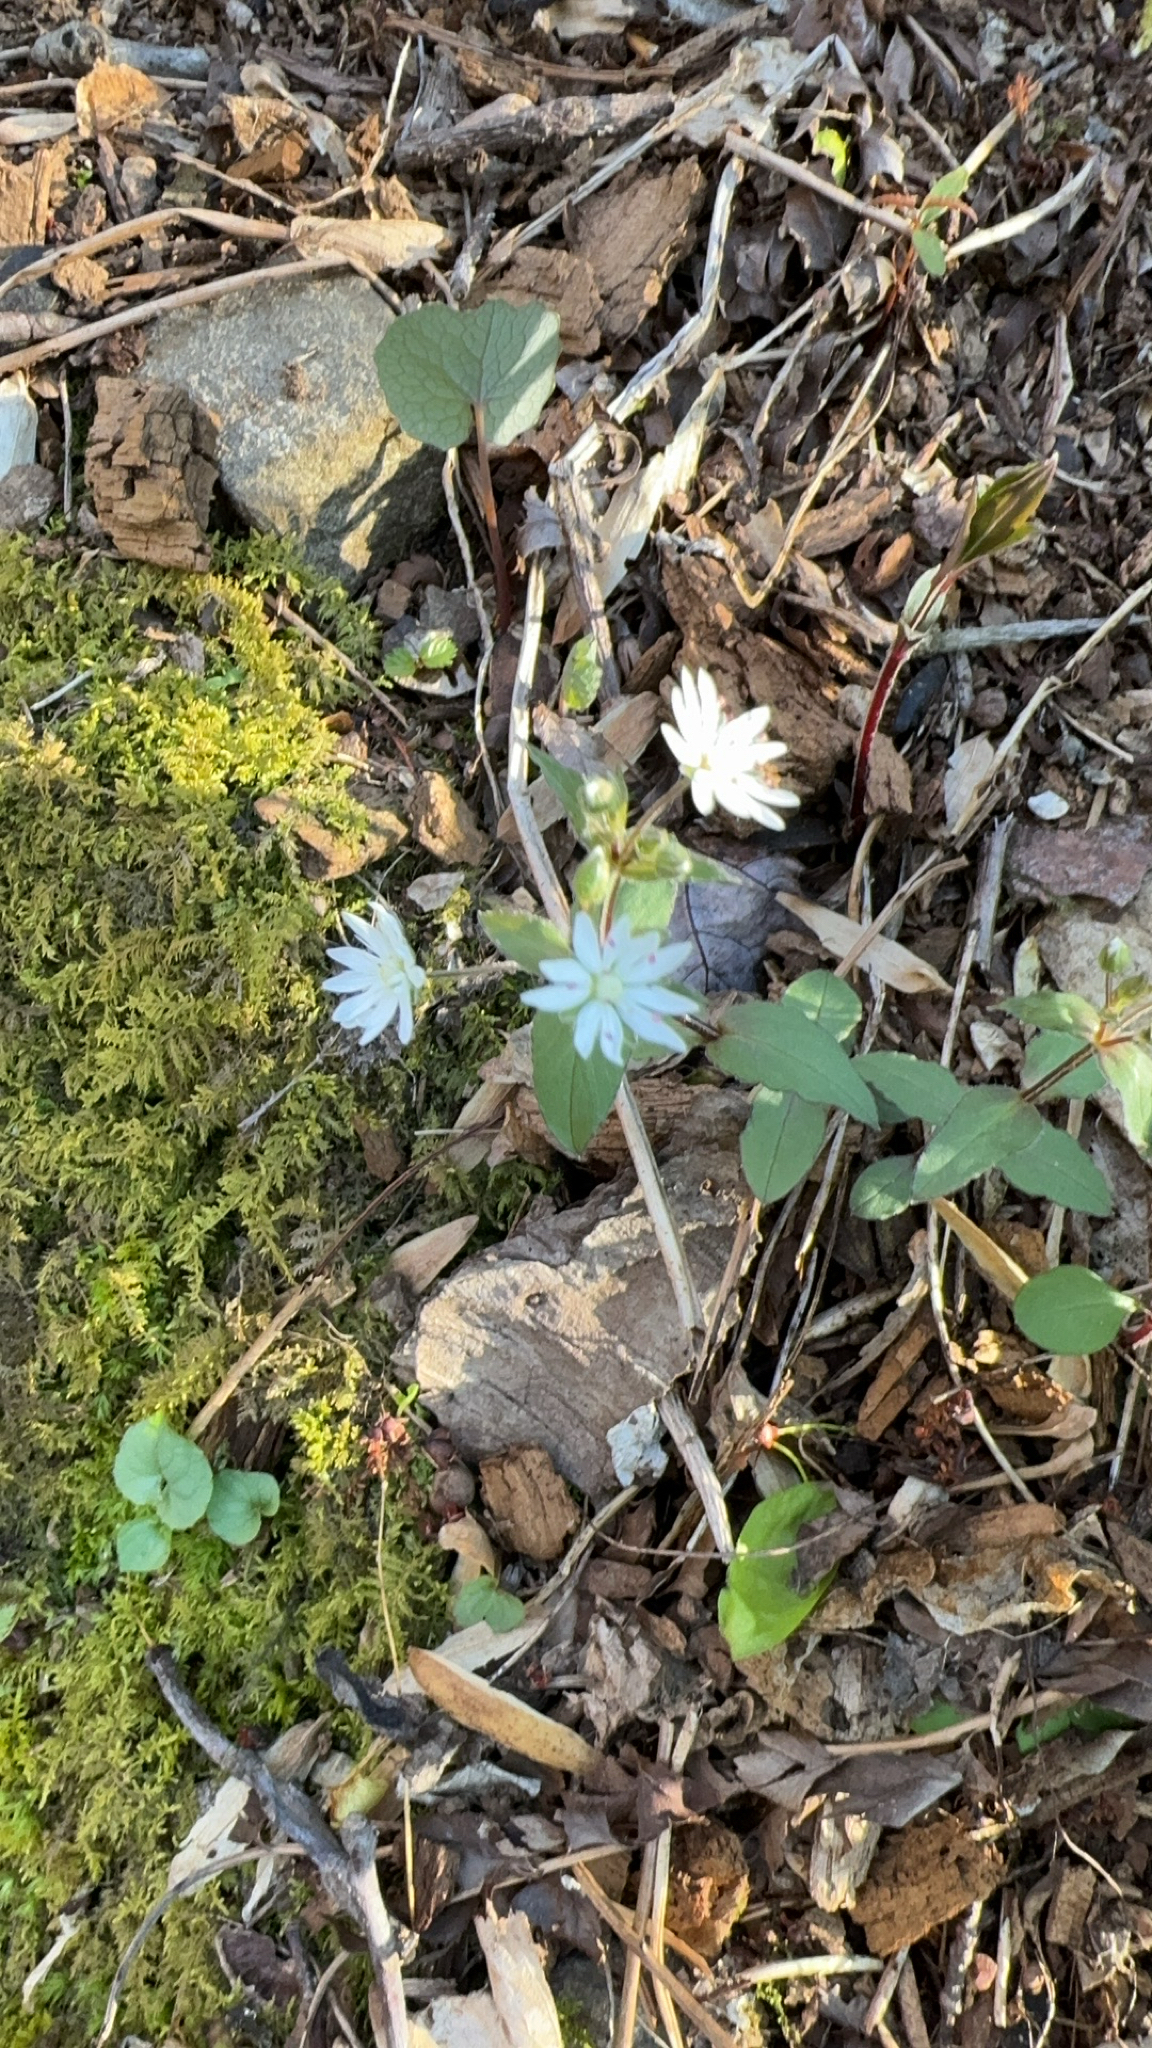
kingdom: Plantae
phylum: Tracheophyta
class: Magnoliopsida
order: Caryophyllales
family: Caryophyllaceae
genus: Stellaria
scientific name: Stellaria pubera
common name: Star chickweed
